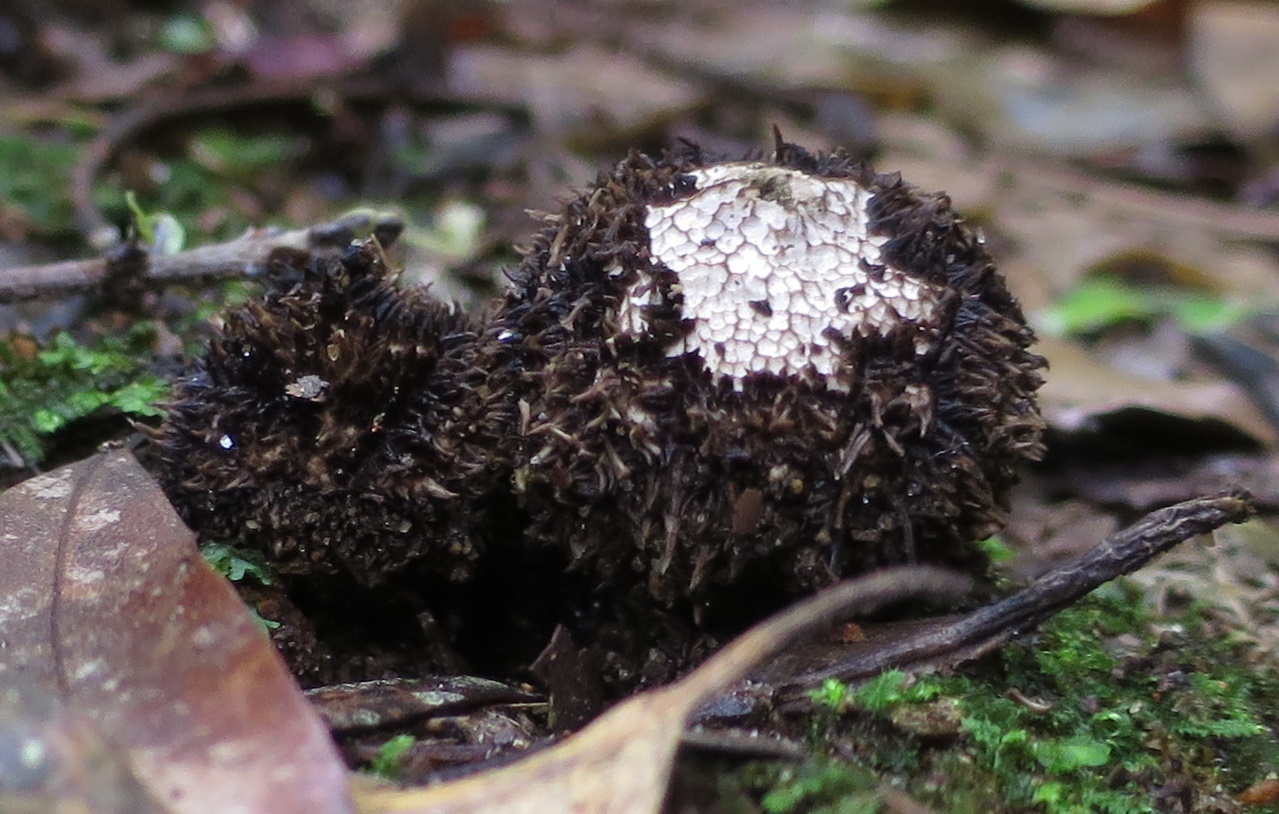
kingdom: Fungi
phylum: Basidiomycota
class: Agaricomycetes
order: Agaricales
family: Lycoperdaceae
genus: Lycoperdon
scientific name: Lycoperdon compactum
